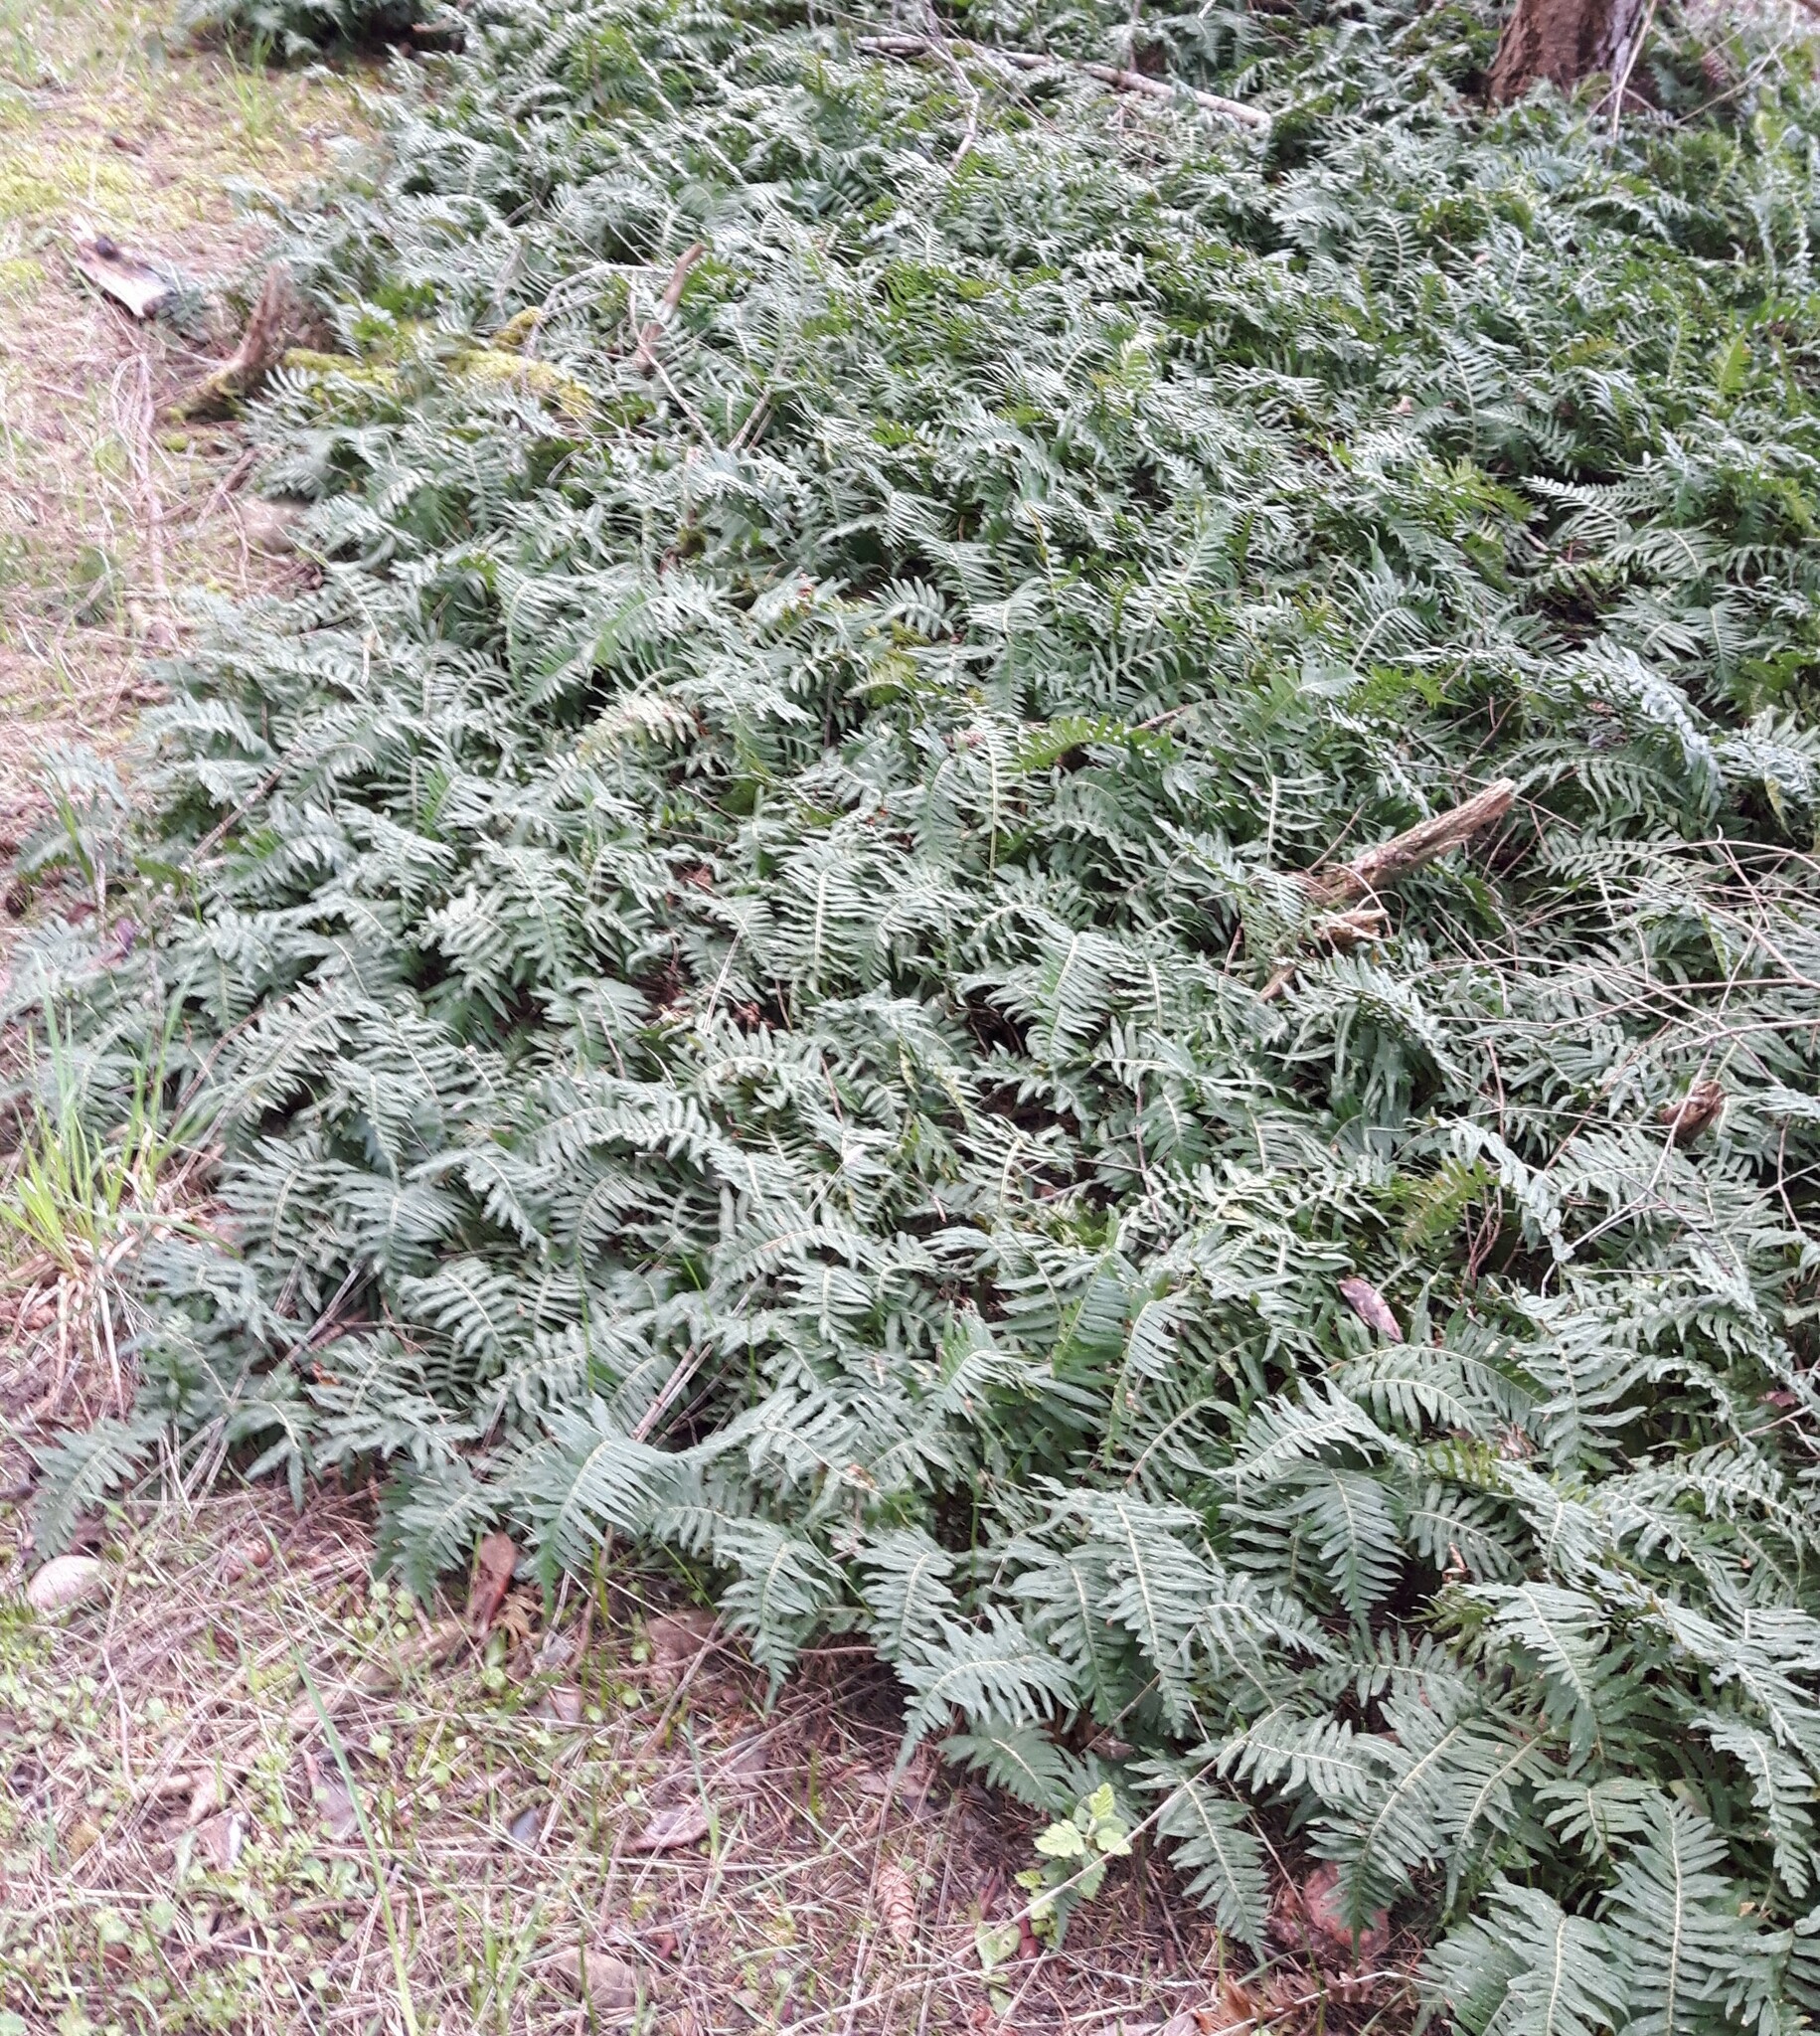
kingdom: Plantae
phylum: Tracheophyta
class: Polypodiopsida
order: Polypodiales
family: Polypodiaceae
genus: Polypodium
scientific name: Polypodium glycyrrhiza
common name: Licorice fern
